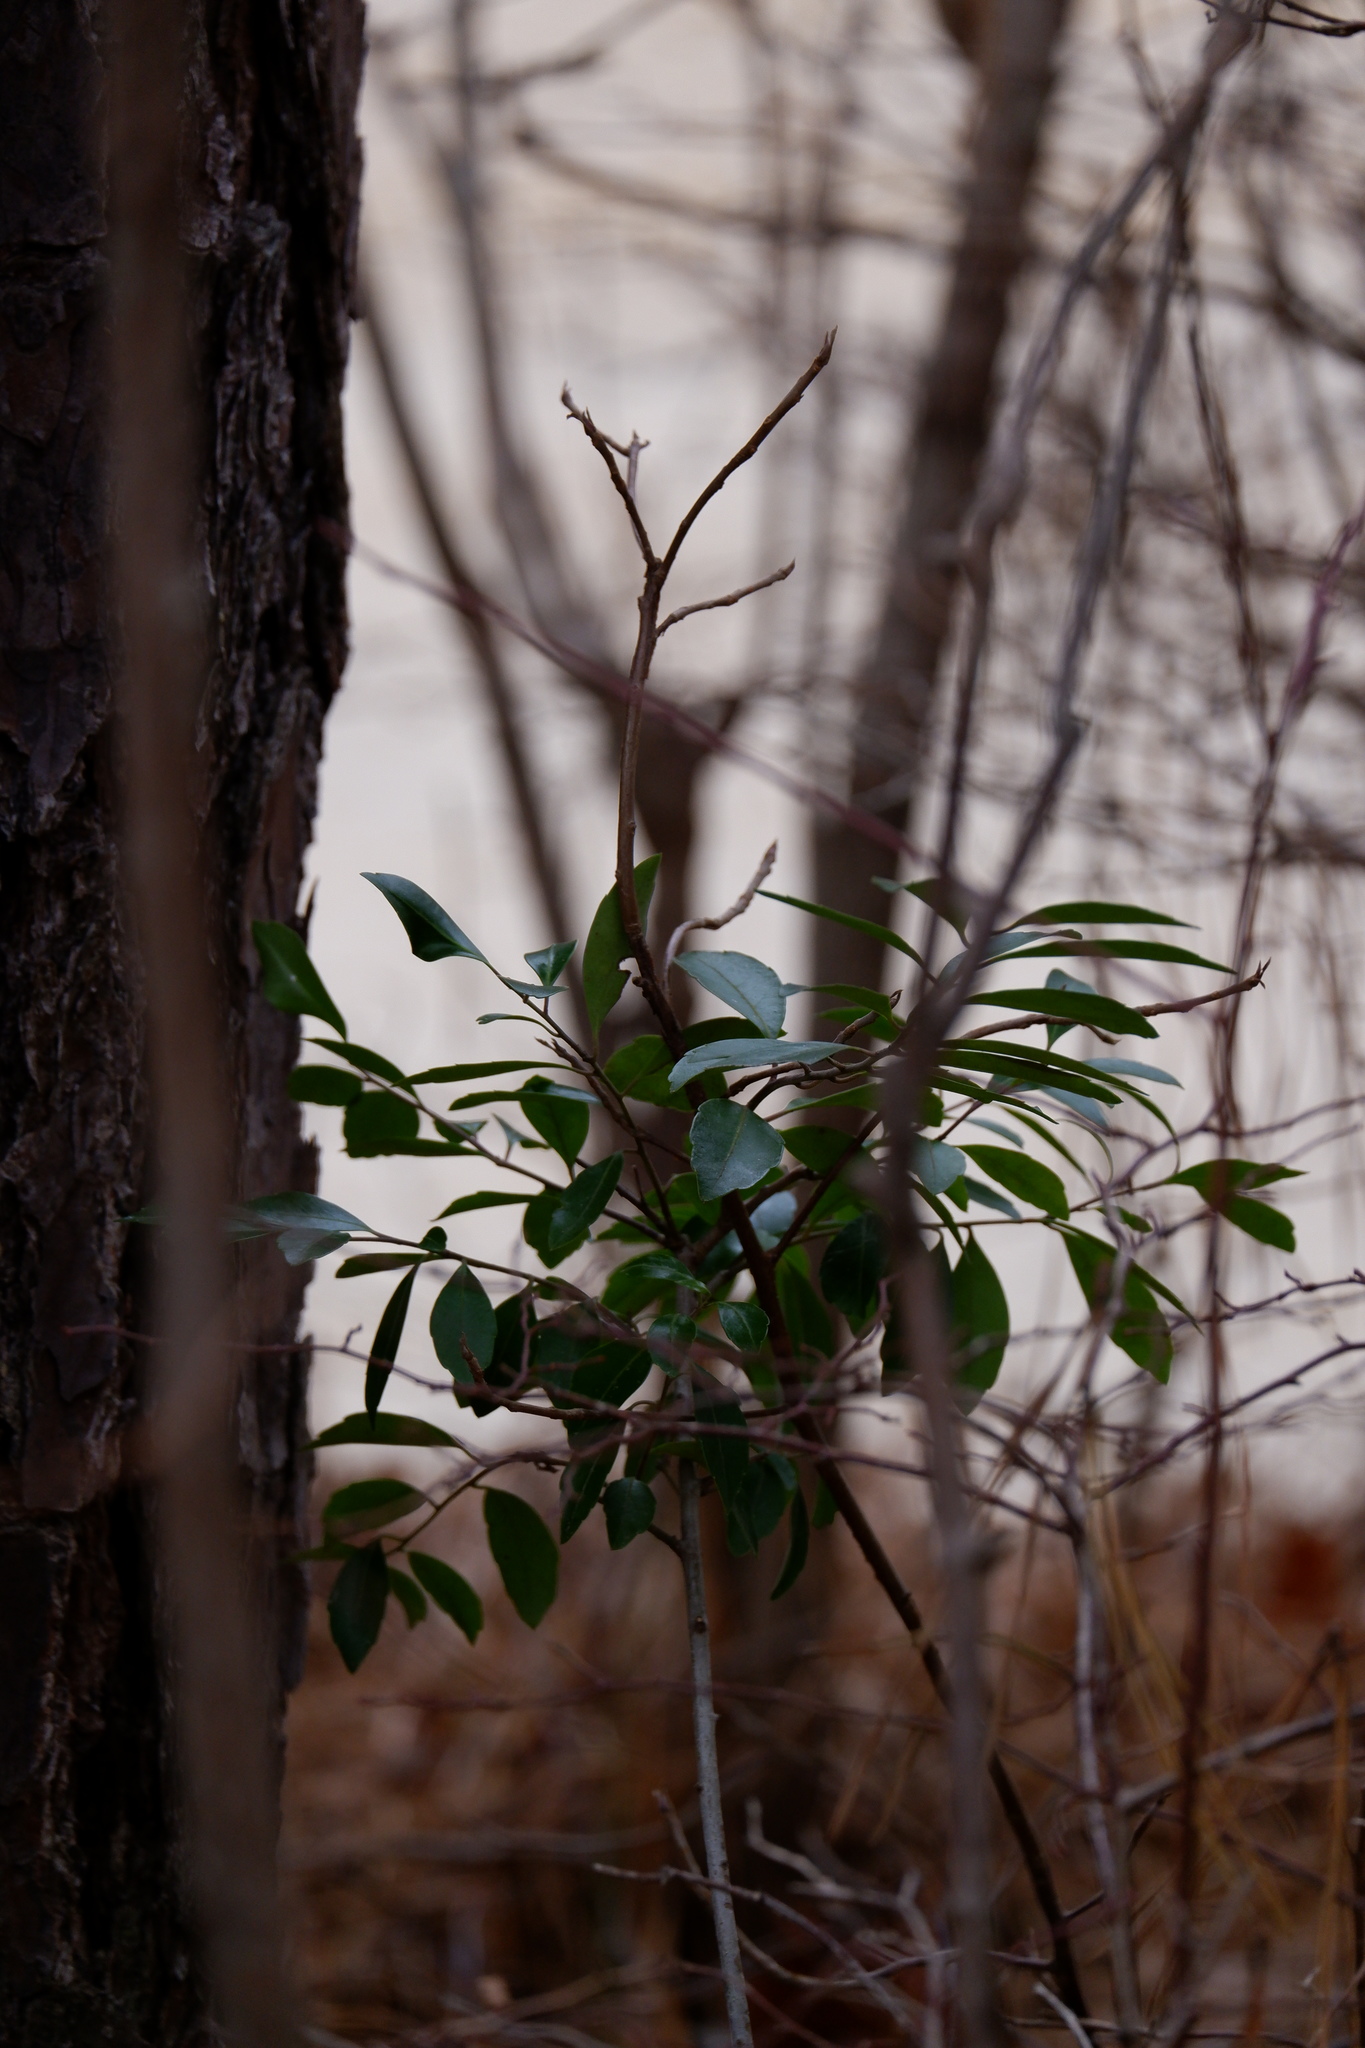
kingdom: Plantae
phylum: Tracheophyta
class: Magnoliopsida
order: Aquifoliales
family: Aquifoliaceae
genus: Ilex
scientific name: Ilex glabra
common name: Bitter gallberry
